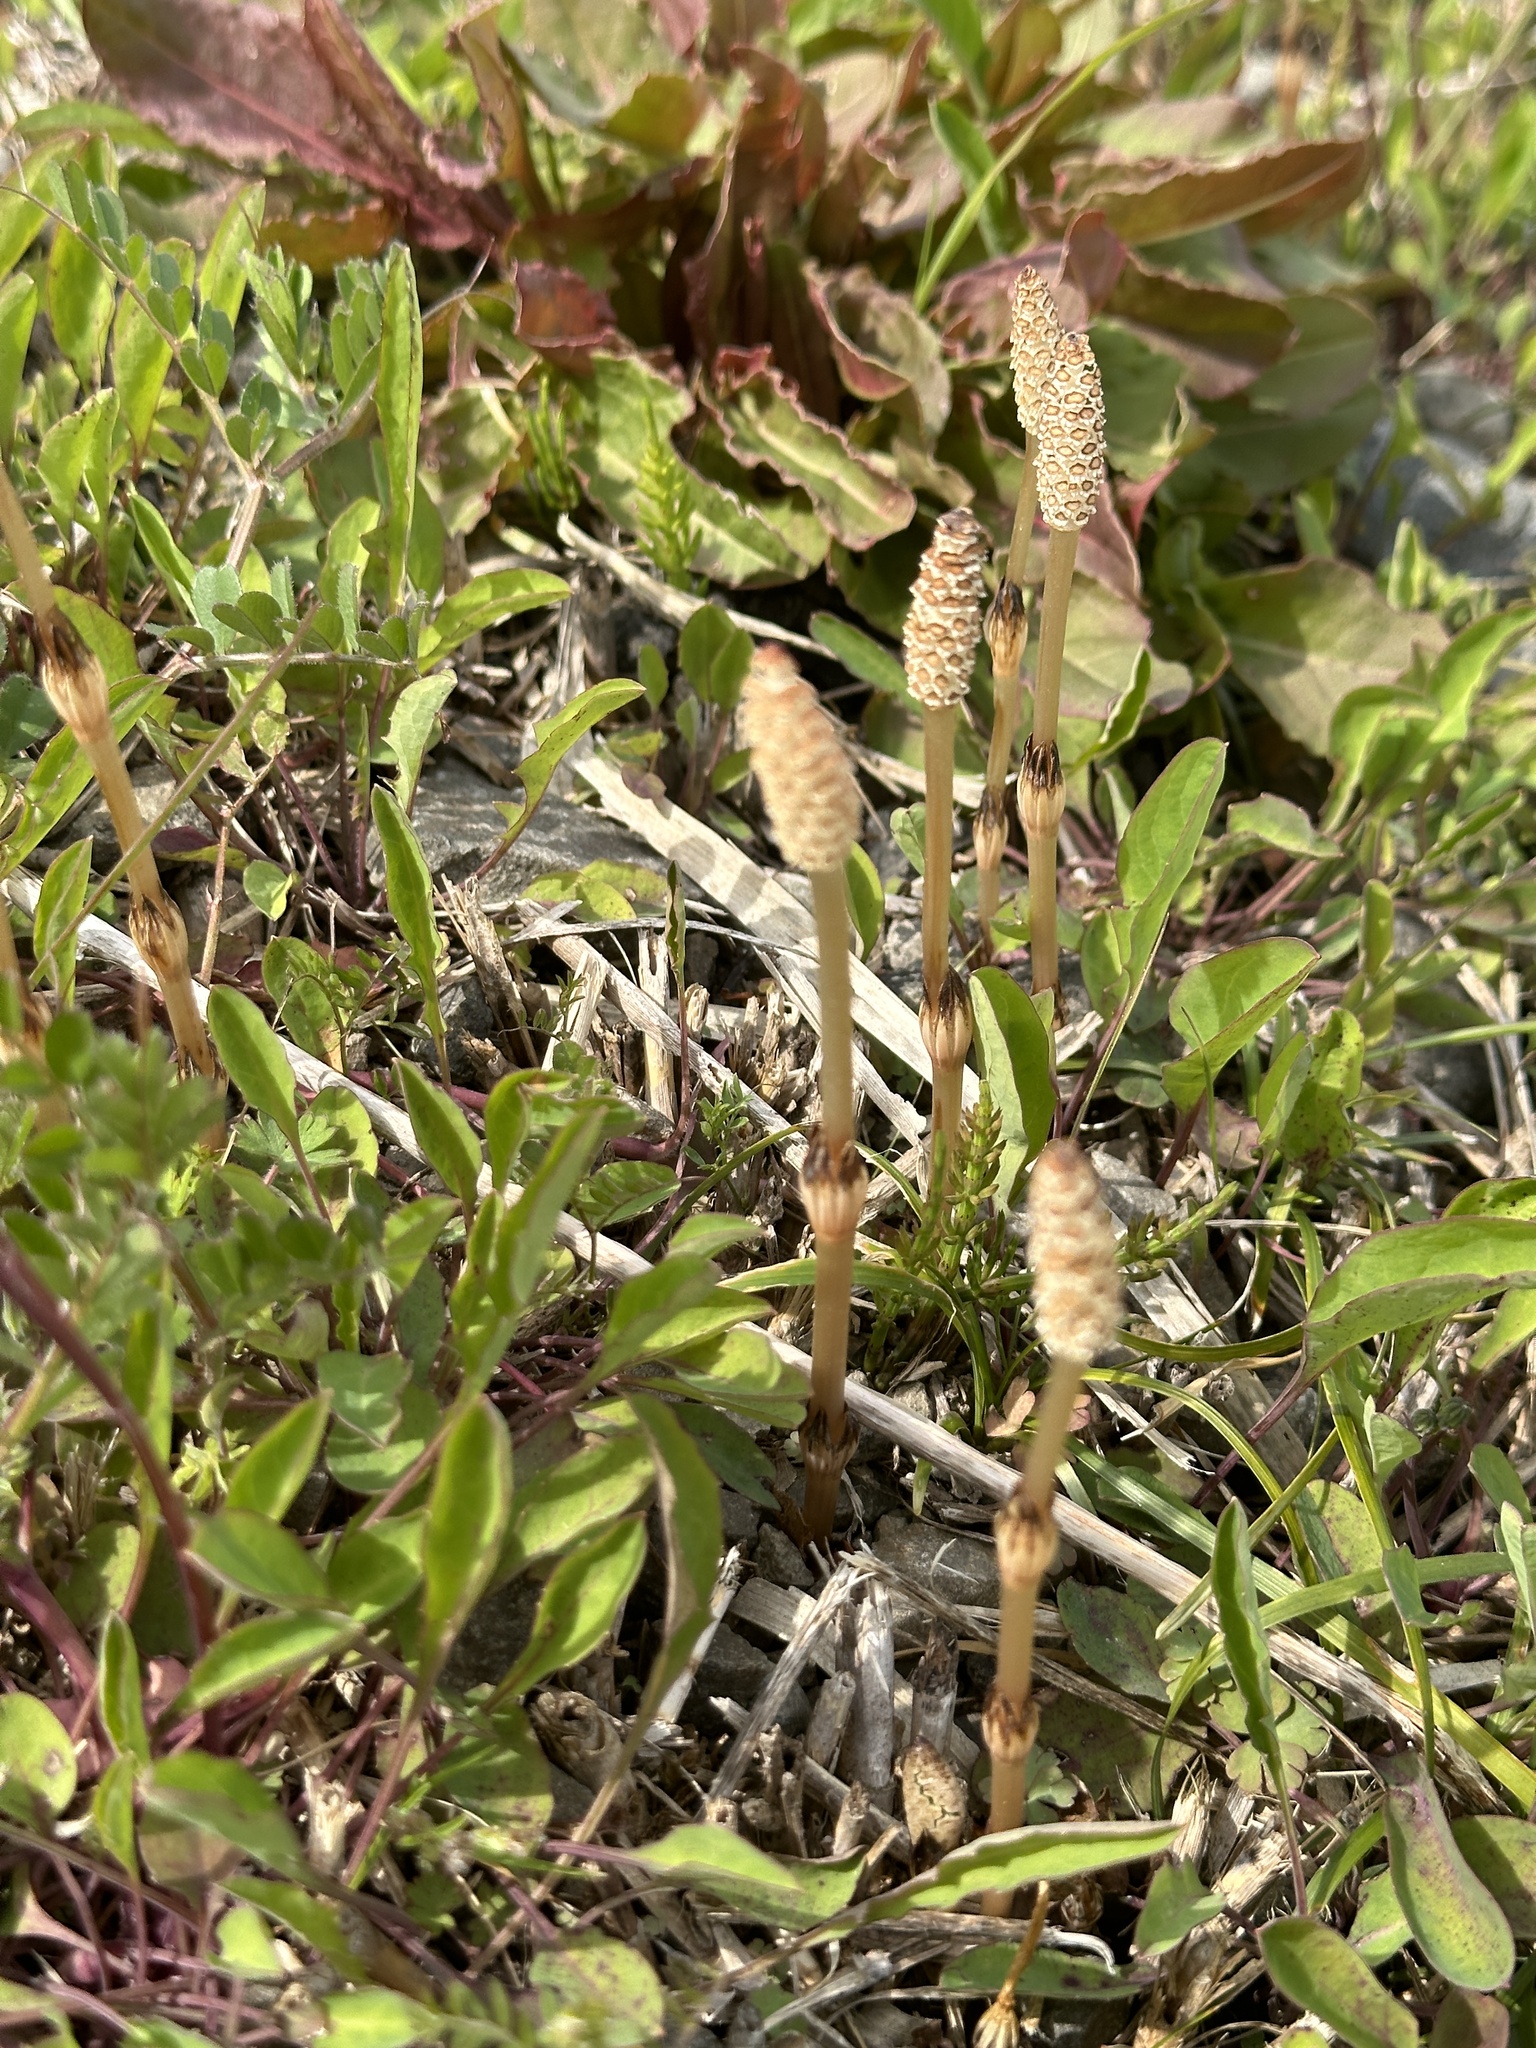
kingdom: Plantae
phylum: Tracheophyta
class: Polypodiopsida
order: Equisetales
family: Equisetaceae
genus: Equisetum
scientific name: Equisetum arvense
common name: Field horsetail
